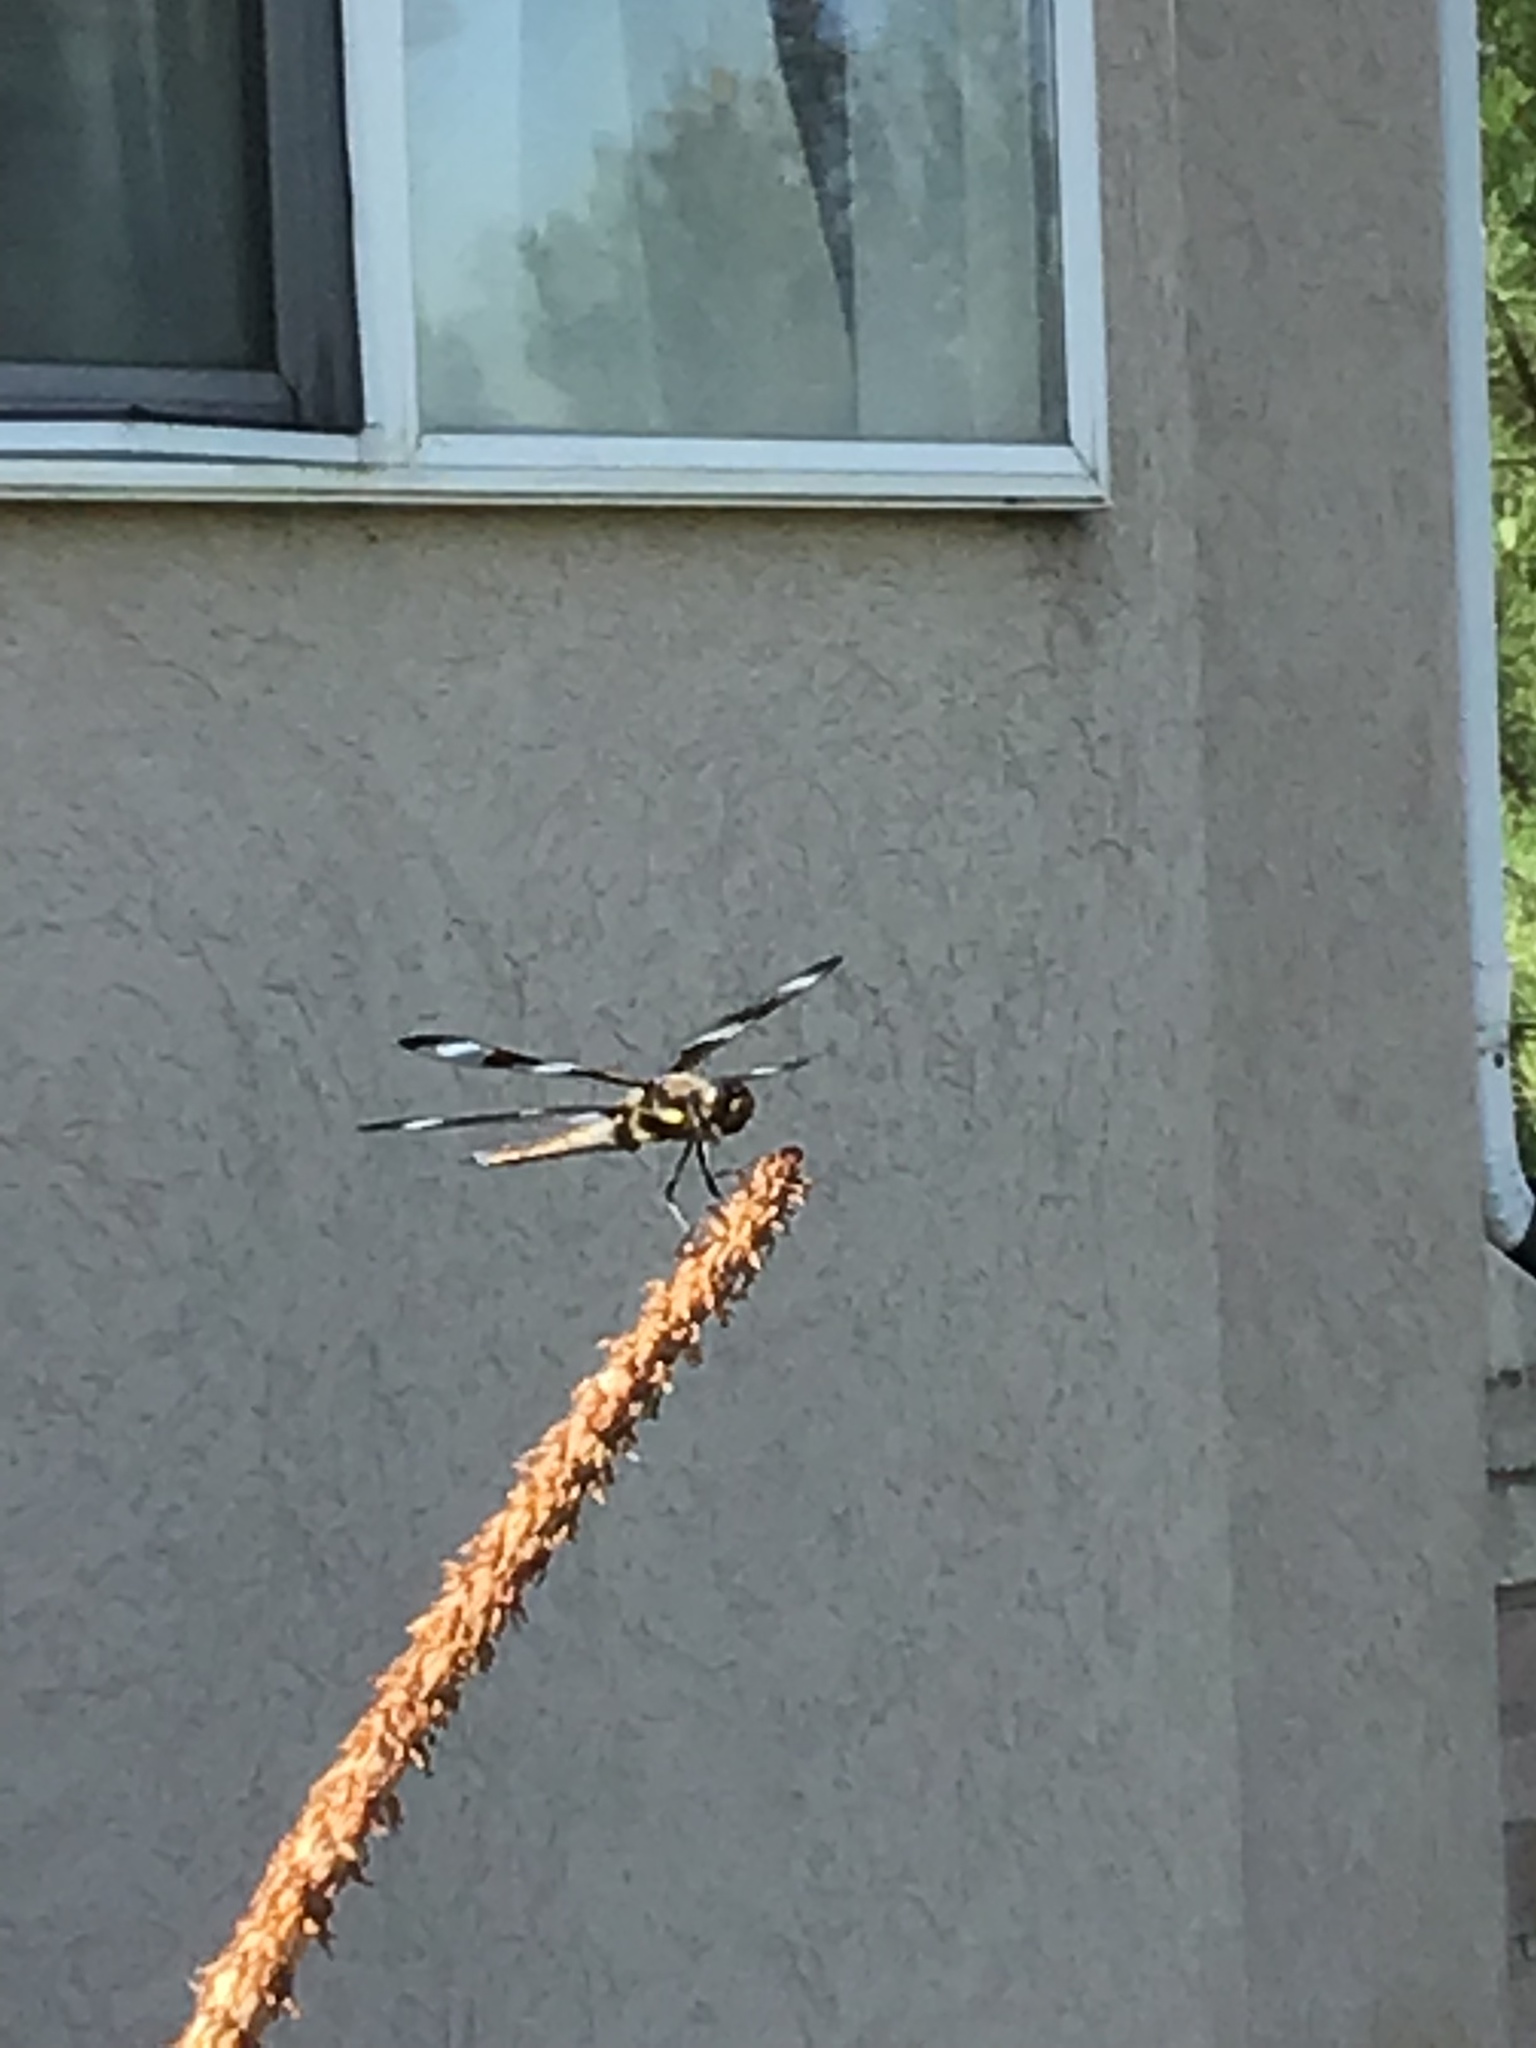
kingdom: Animalia
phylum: Arthropoda
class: Insecta
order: Odonata
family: Libellulidae
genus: Libellula
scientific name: Libellula pulchella
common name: Twelve-spotted skimmer
